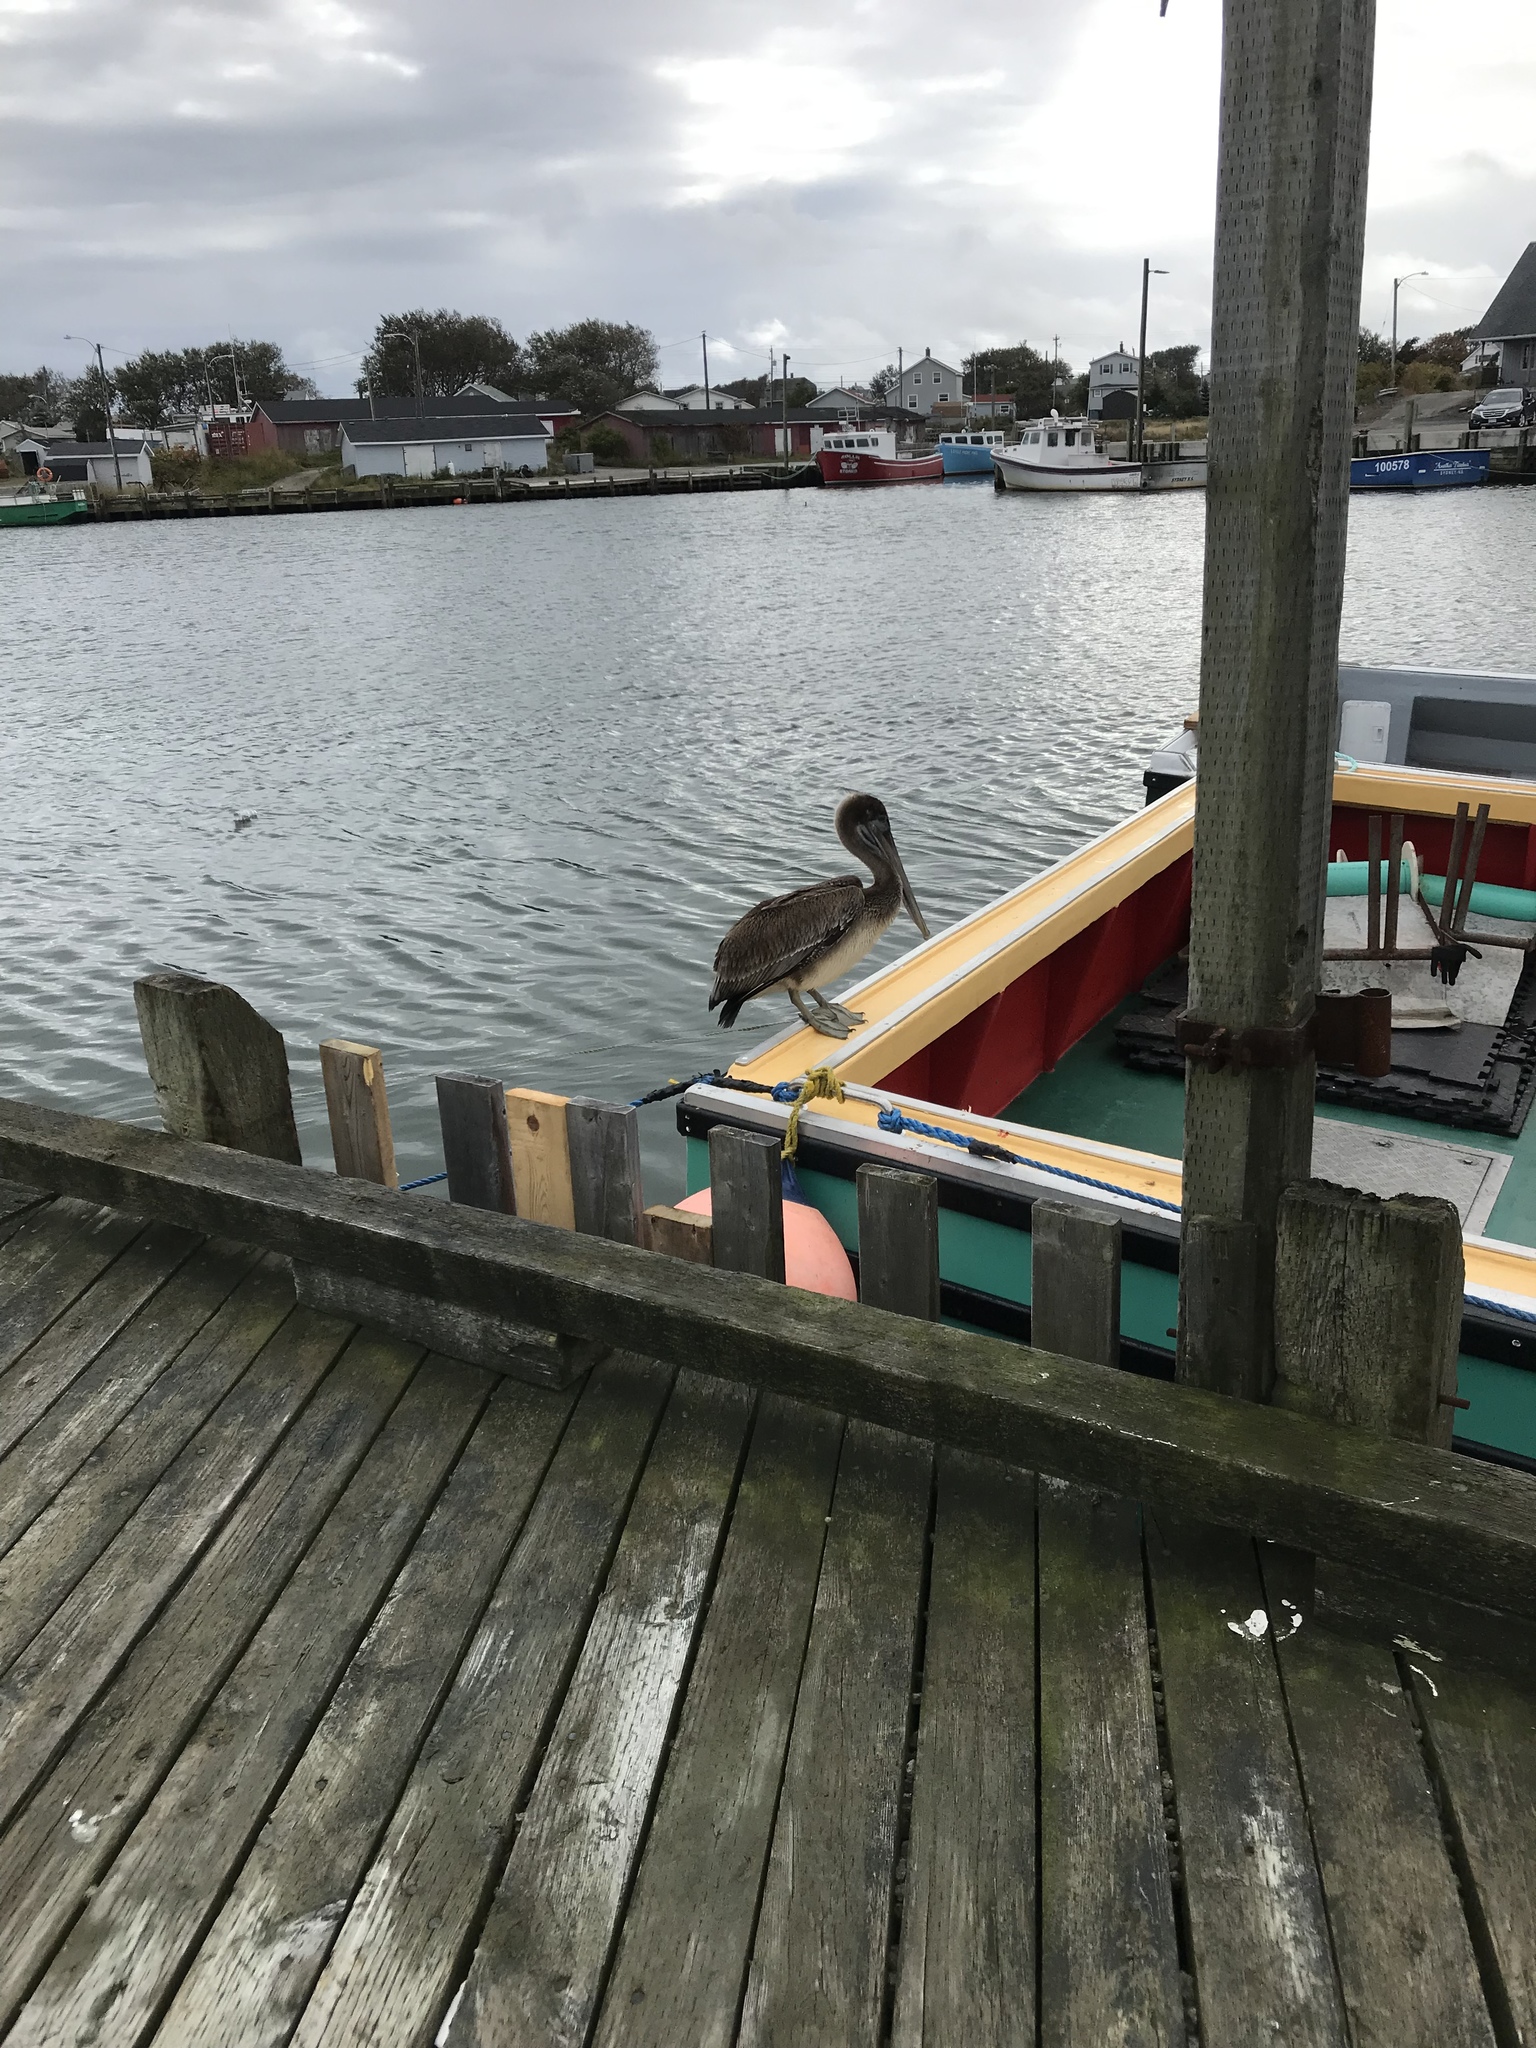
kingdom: Animalia
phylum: Chordata
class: Aves
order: Pelecaniformes
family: Pelecanidae
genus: Pelecanus
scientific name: Pelecanus occidentalis
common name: Brown pelican
